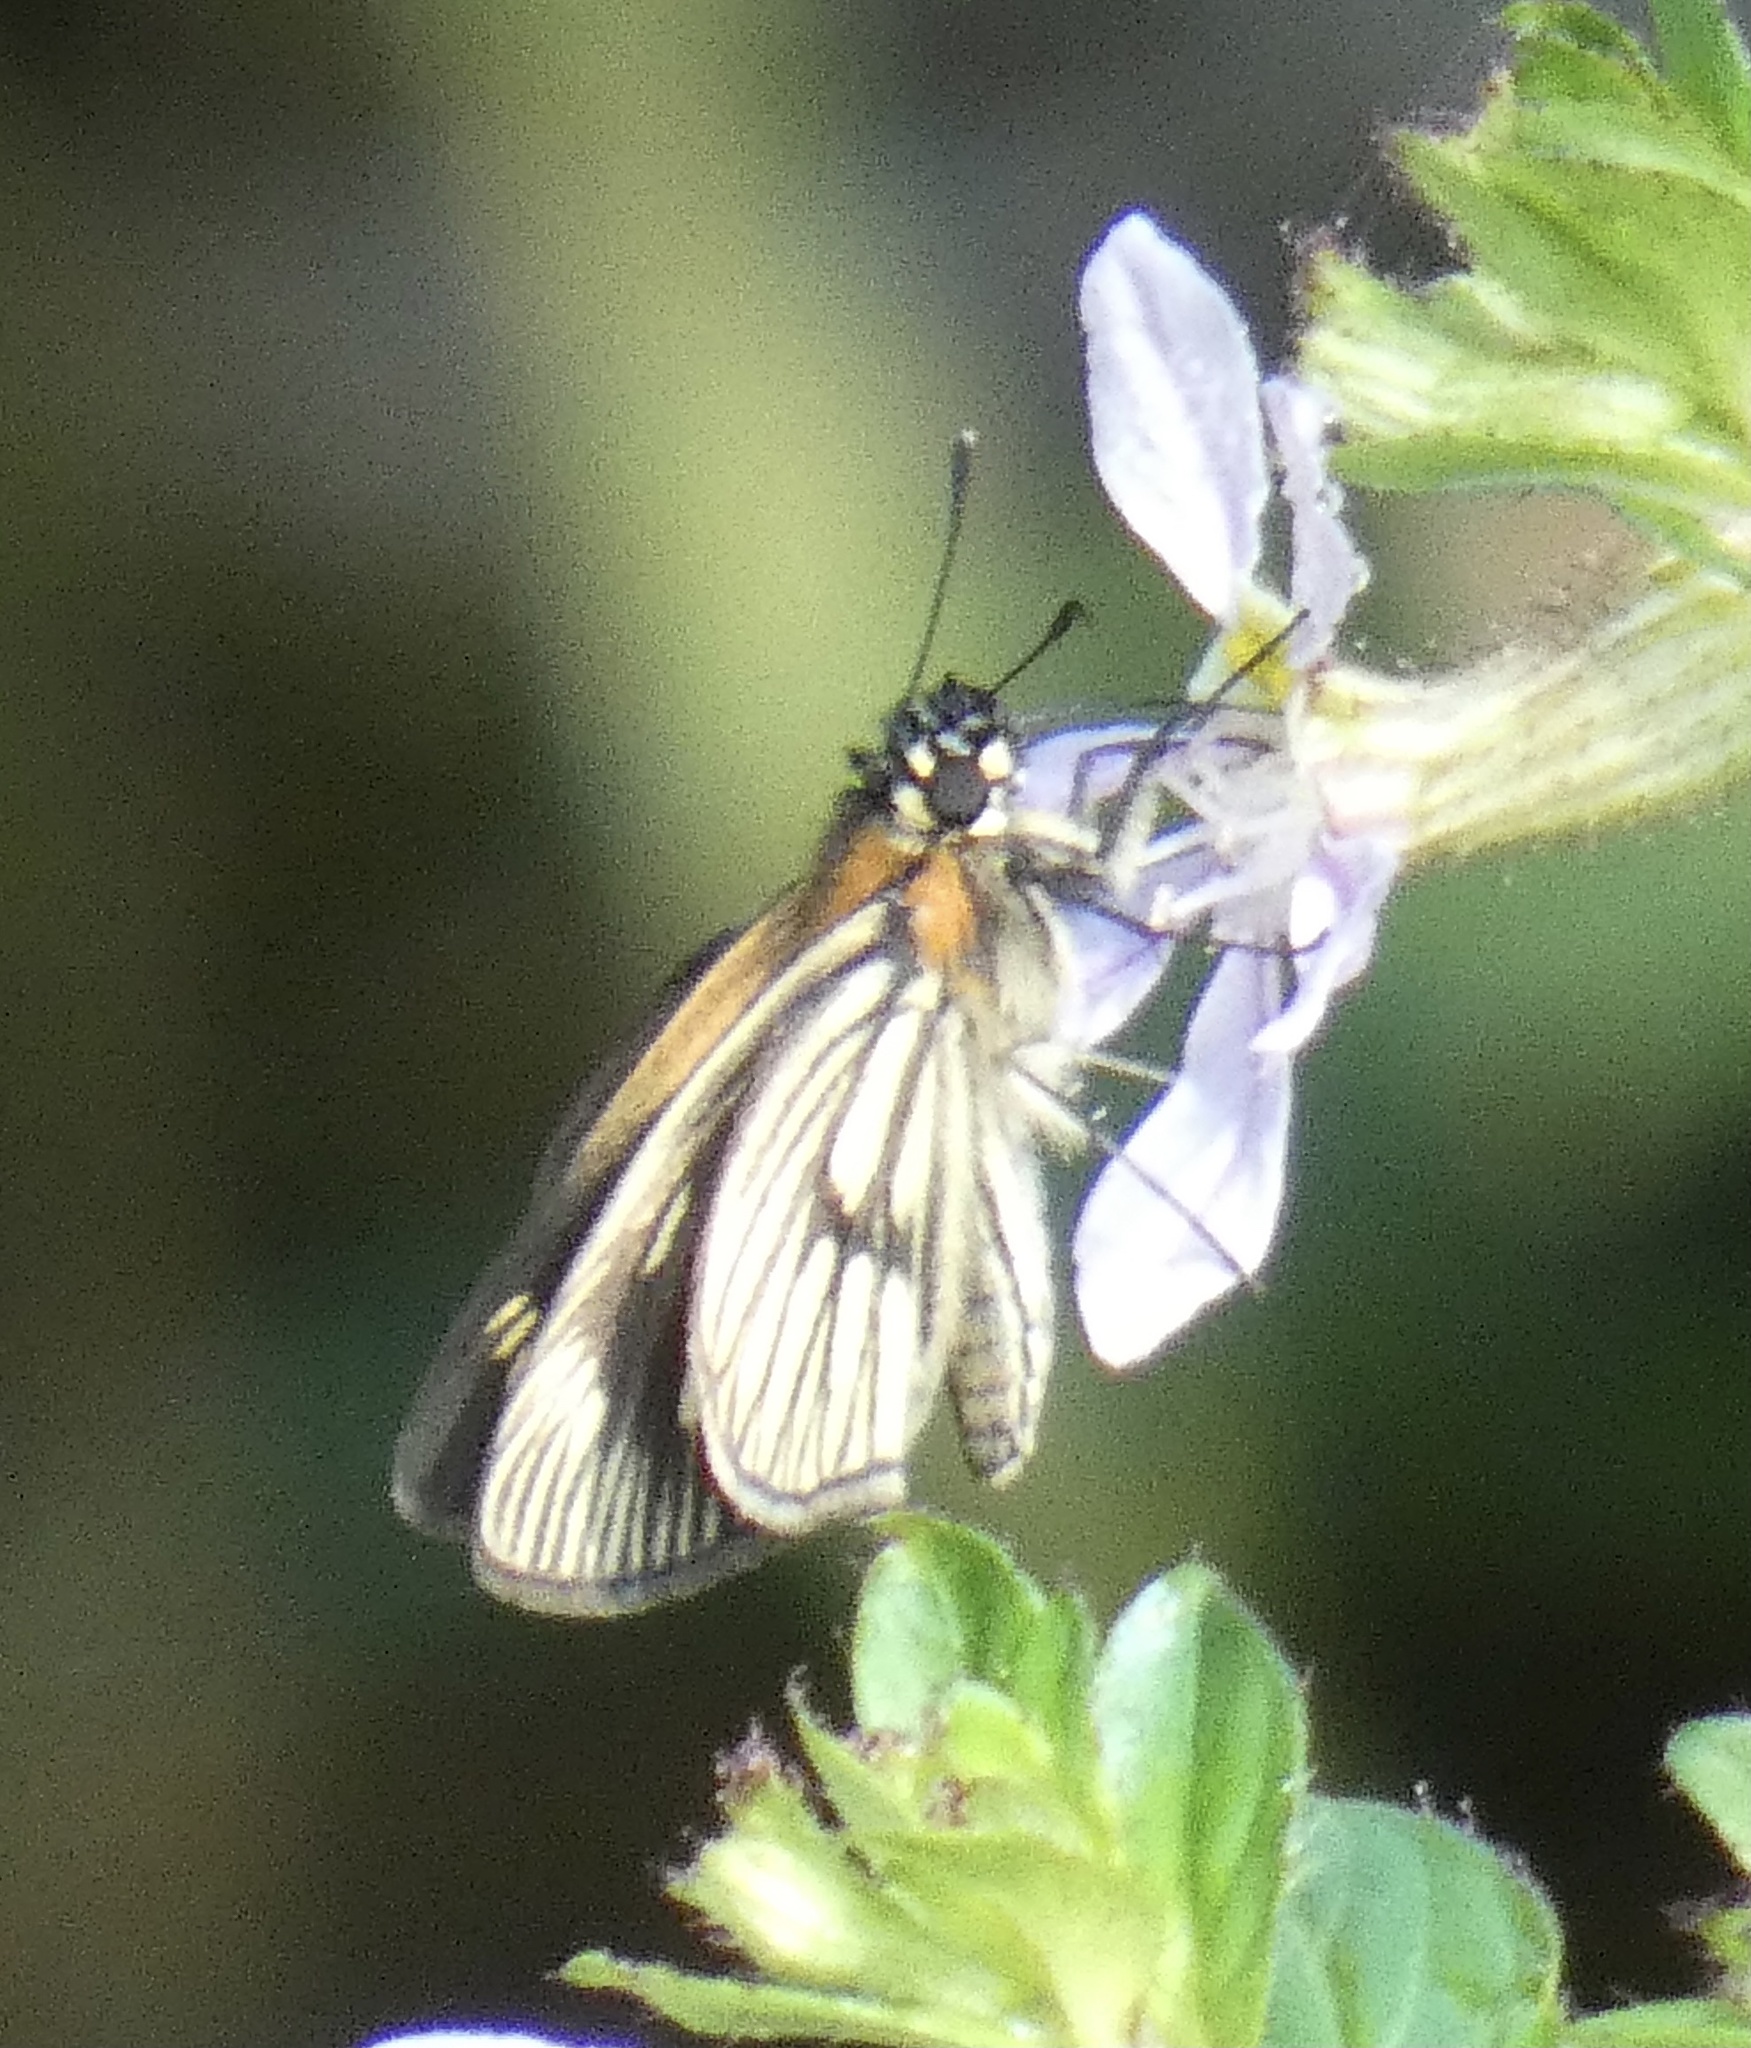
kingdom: Animalia
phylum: Arthropoda
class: Insecta
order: Lepidoptera
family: Hesperiidae
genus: Vehilius
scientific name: Vehilius clavicula
